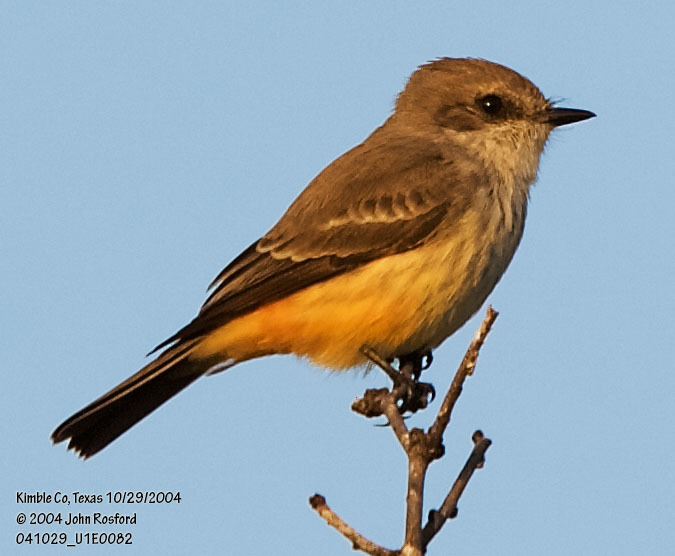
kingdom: Animalia
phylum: Chordata
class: Aves
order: Passeriformes
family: Tyrannidae
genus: Pyrocephalus
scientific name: Pyrocephalus rubinus
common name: Vermilion flycatcher
